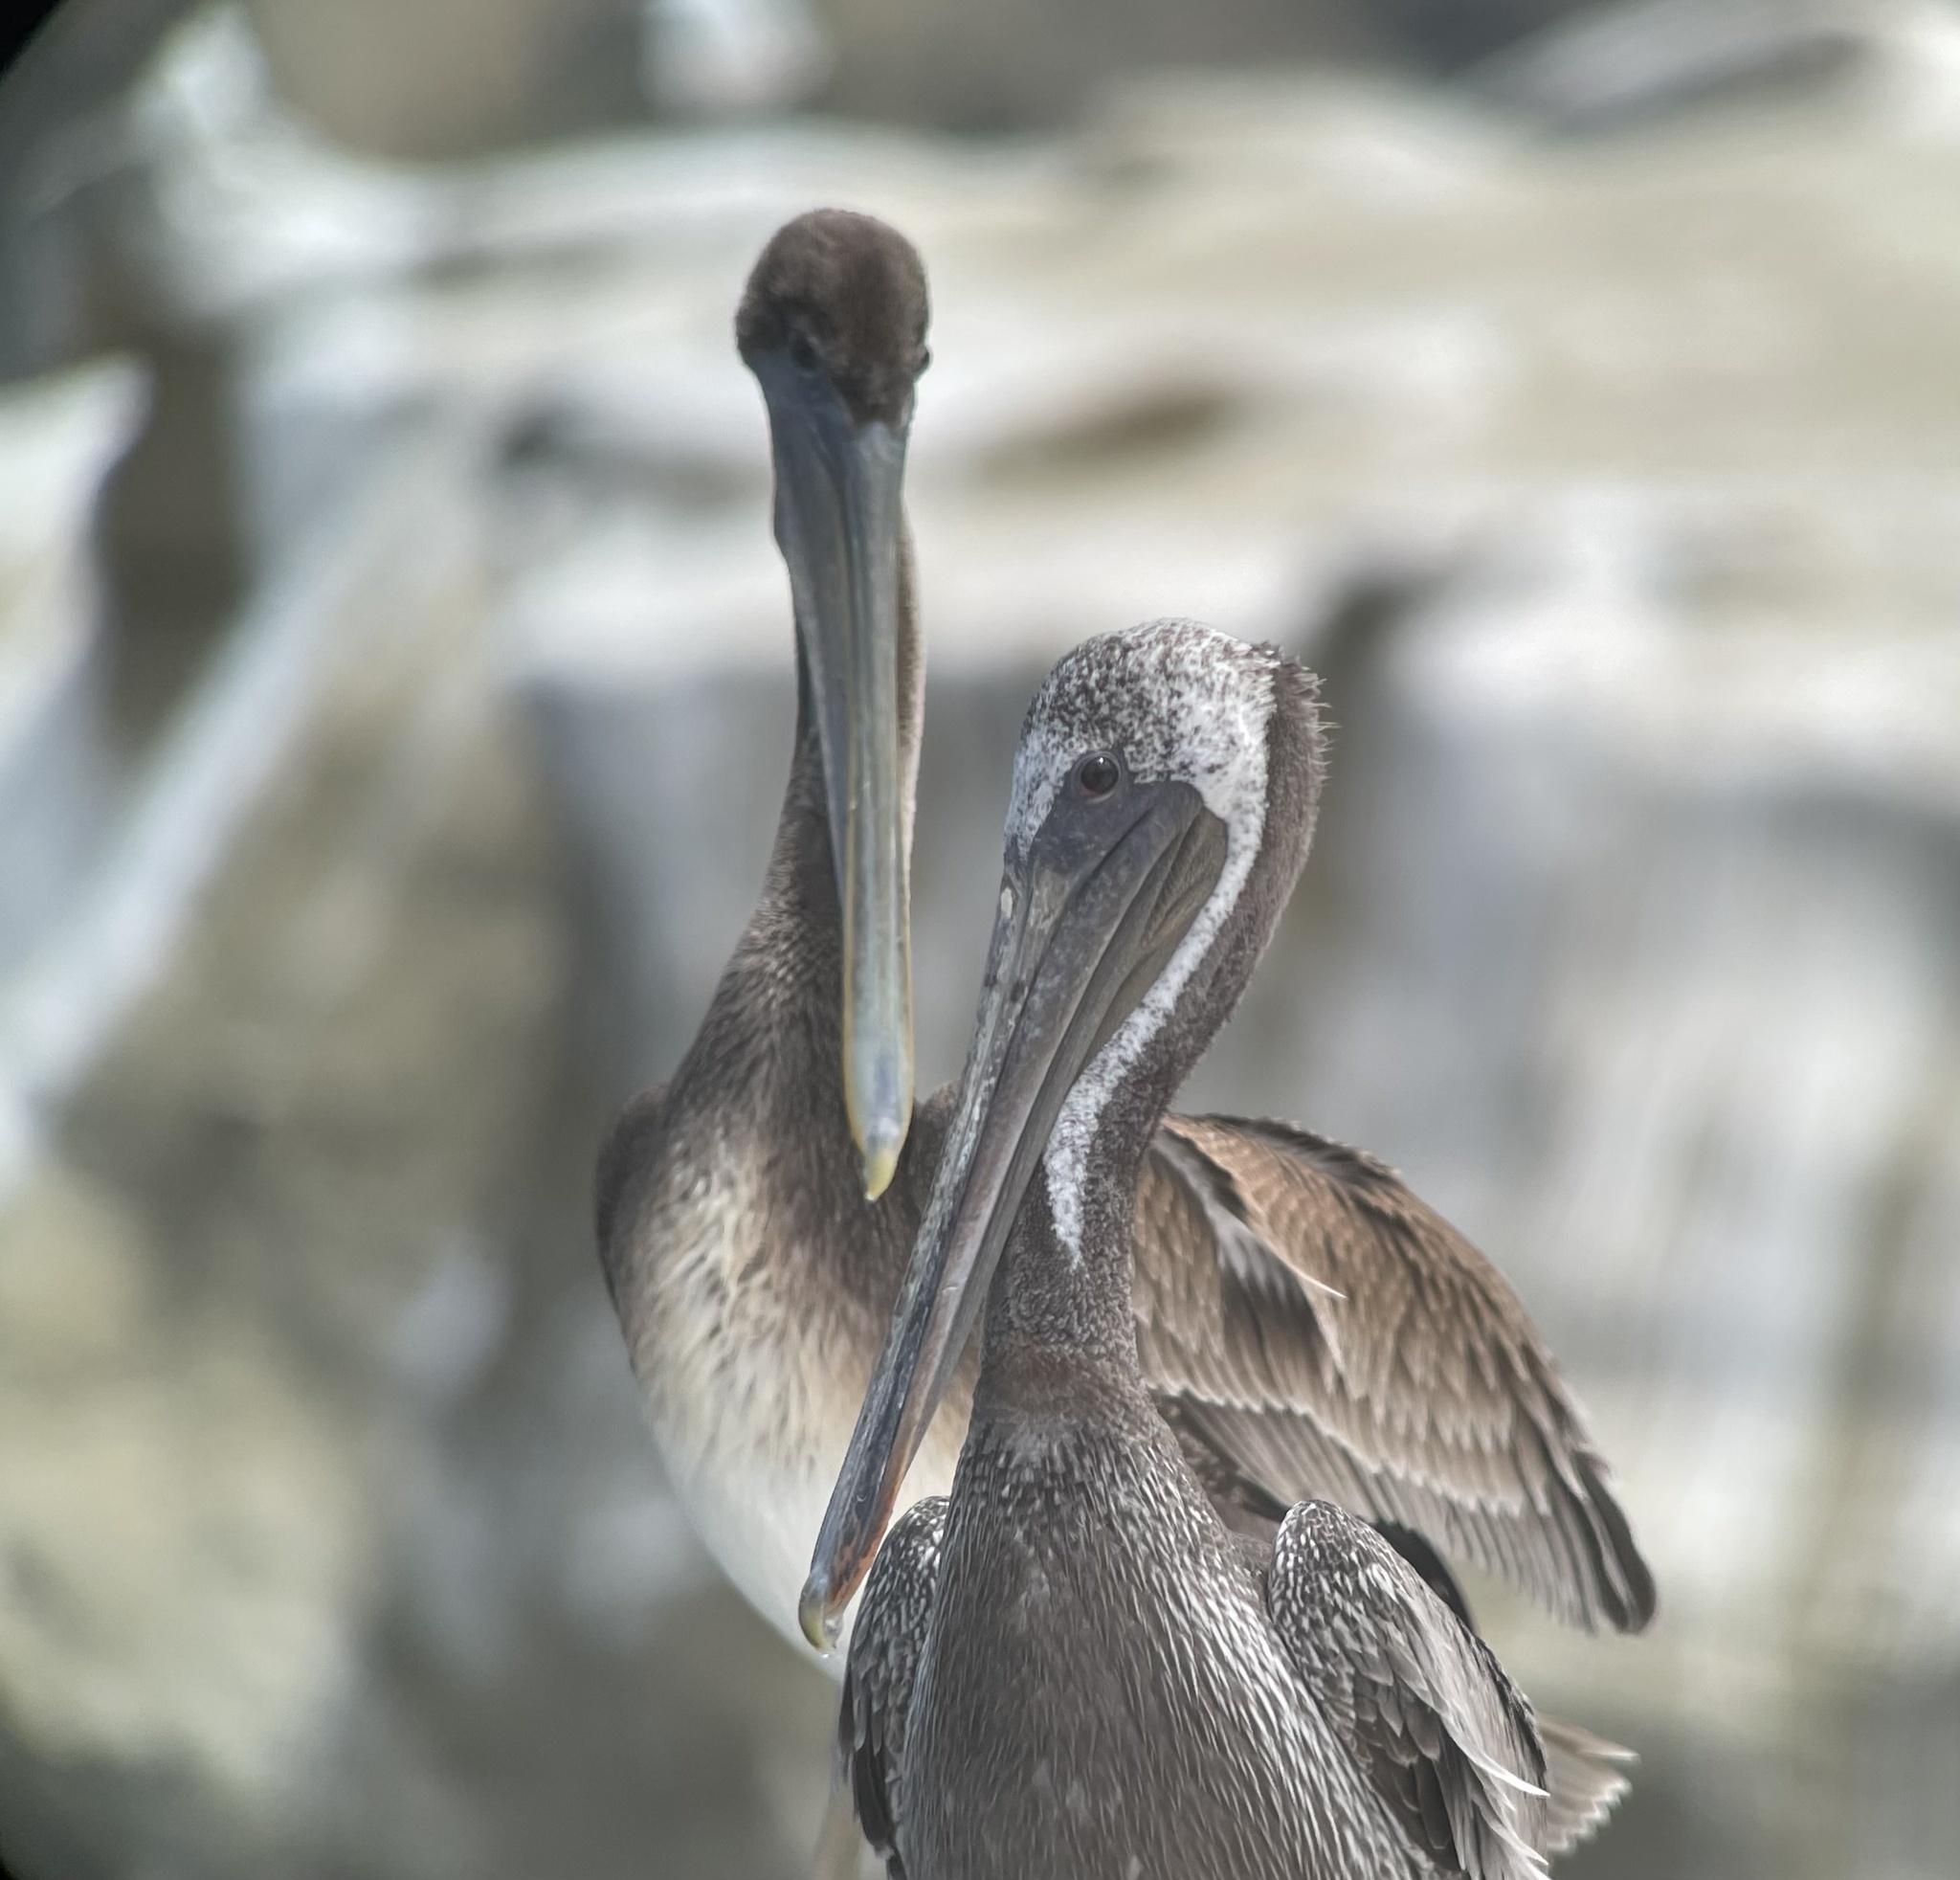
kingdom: Animalia
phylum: Chordata
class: Aves
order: Pelecaniformes
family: Pelecanidae
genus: Pelecanus
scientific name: Pelecanus occidentalis
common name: Brown pelican
